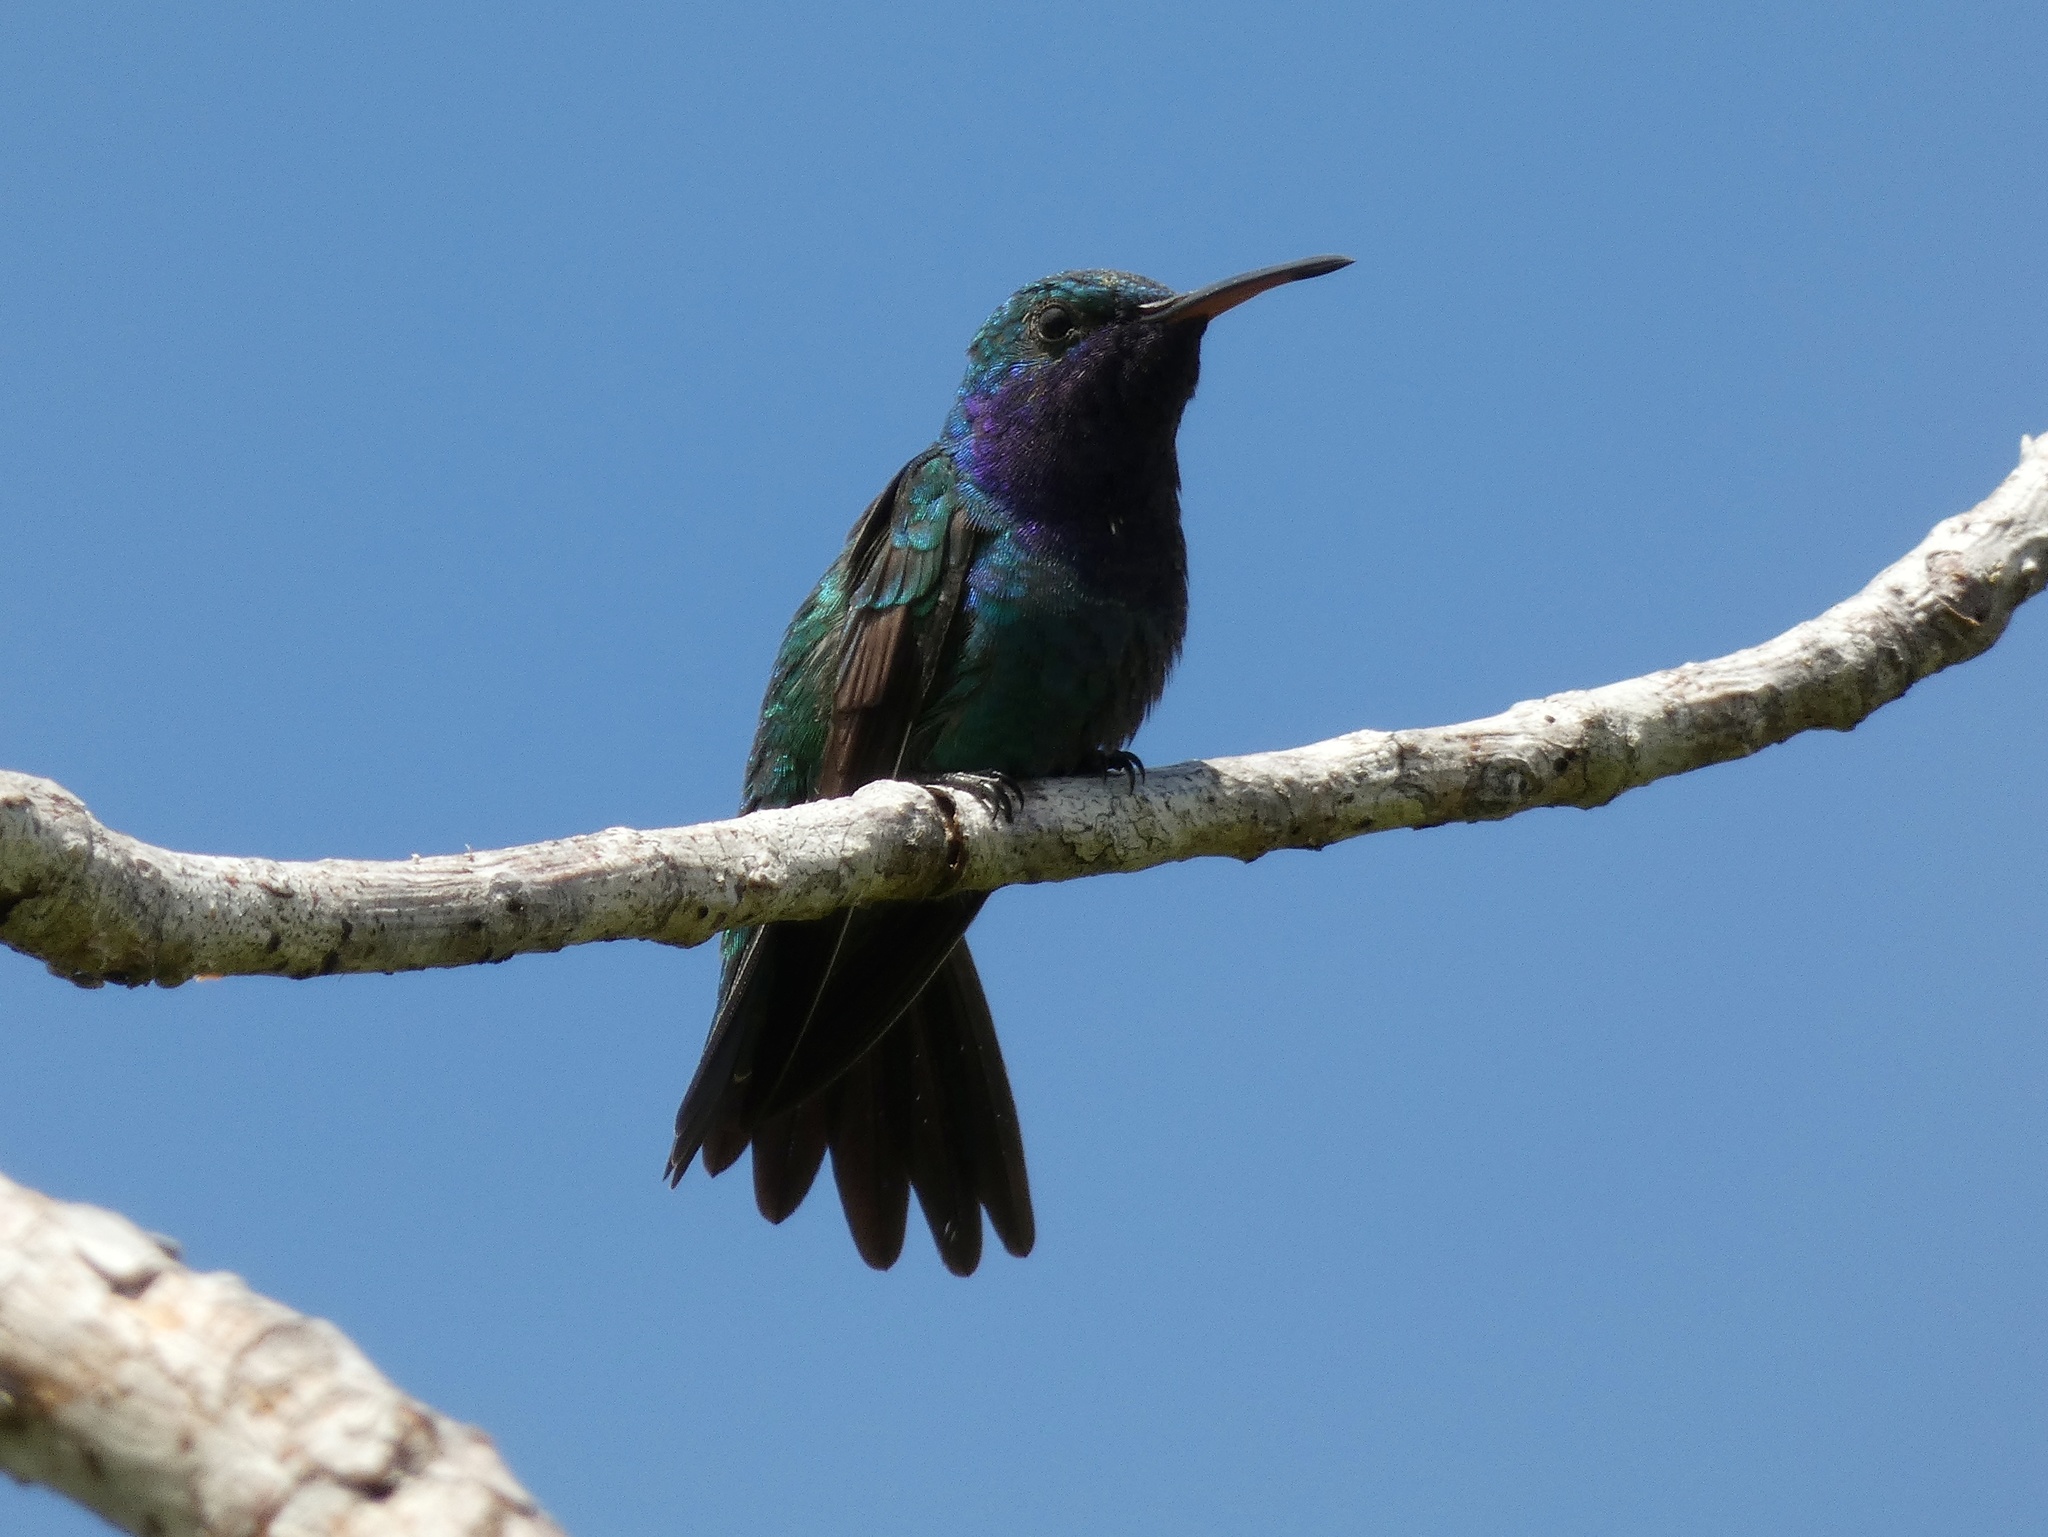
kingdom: Animalia
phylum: Chordata
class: Aves
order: Apodiformes
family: Trochilidae
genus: Chrysuronia
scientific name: Chrysuronia coeruleogularis
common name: Sapphire-throated hummingbird
